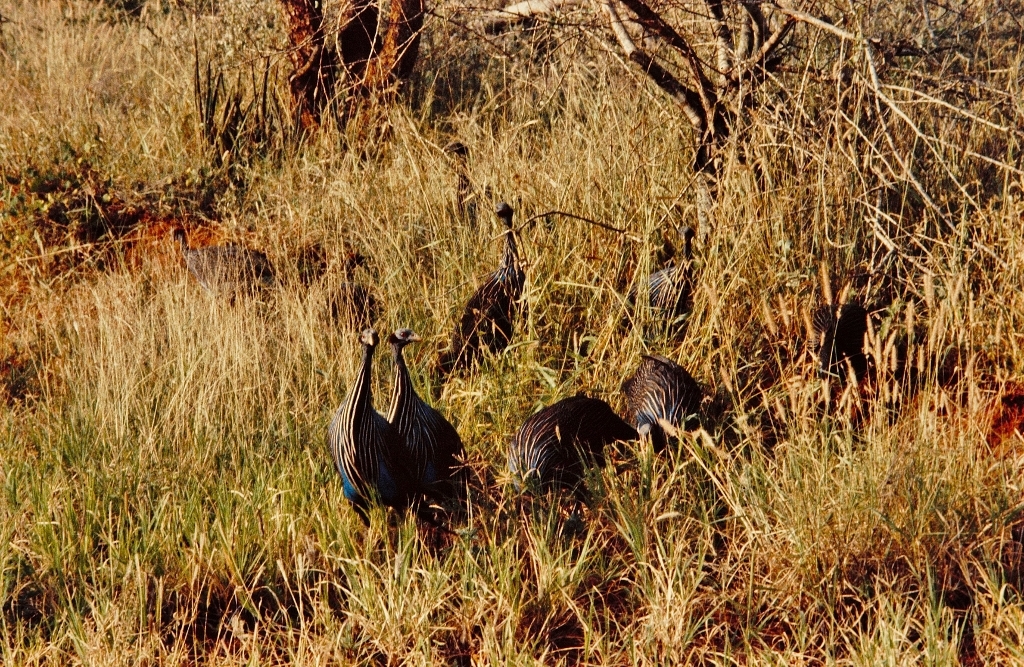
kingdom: Animalia
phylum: Chordata
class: Aves
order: Galliformes
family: Numididae
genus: Acryllium
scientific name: Acryllium vulturinum
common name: Vulturine guineafowl
